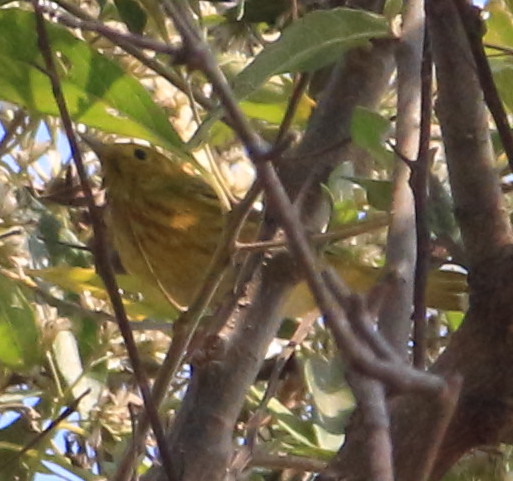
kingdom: Animalia
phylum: Chordata
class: Aves
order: Passeriformes
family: Parulidae
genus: Setophaga
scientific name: Setophaga petechia
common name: Yellow warbler
